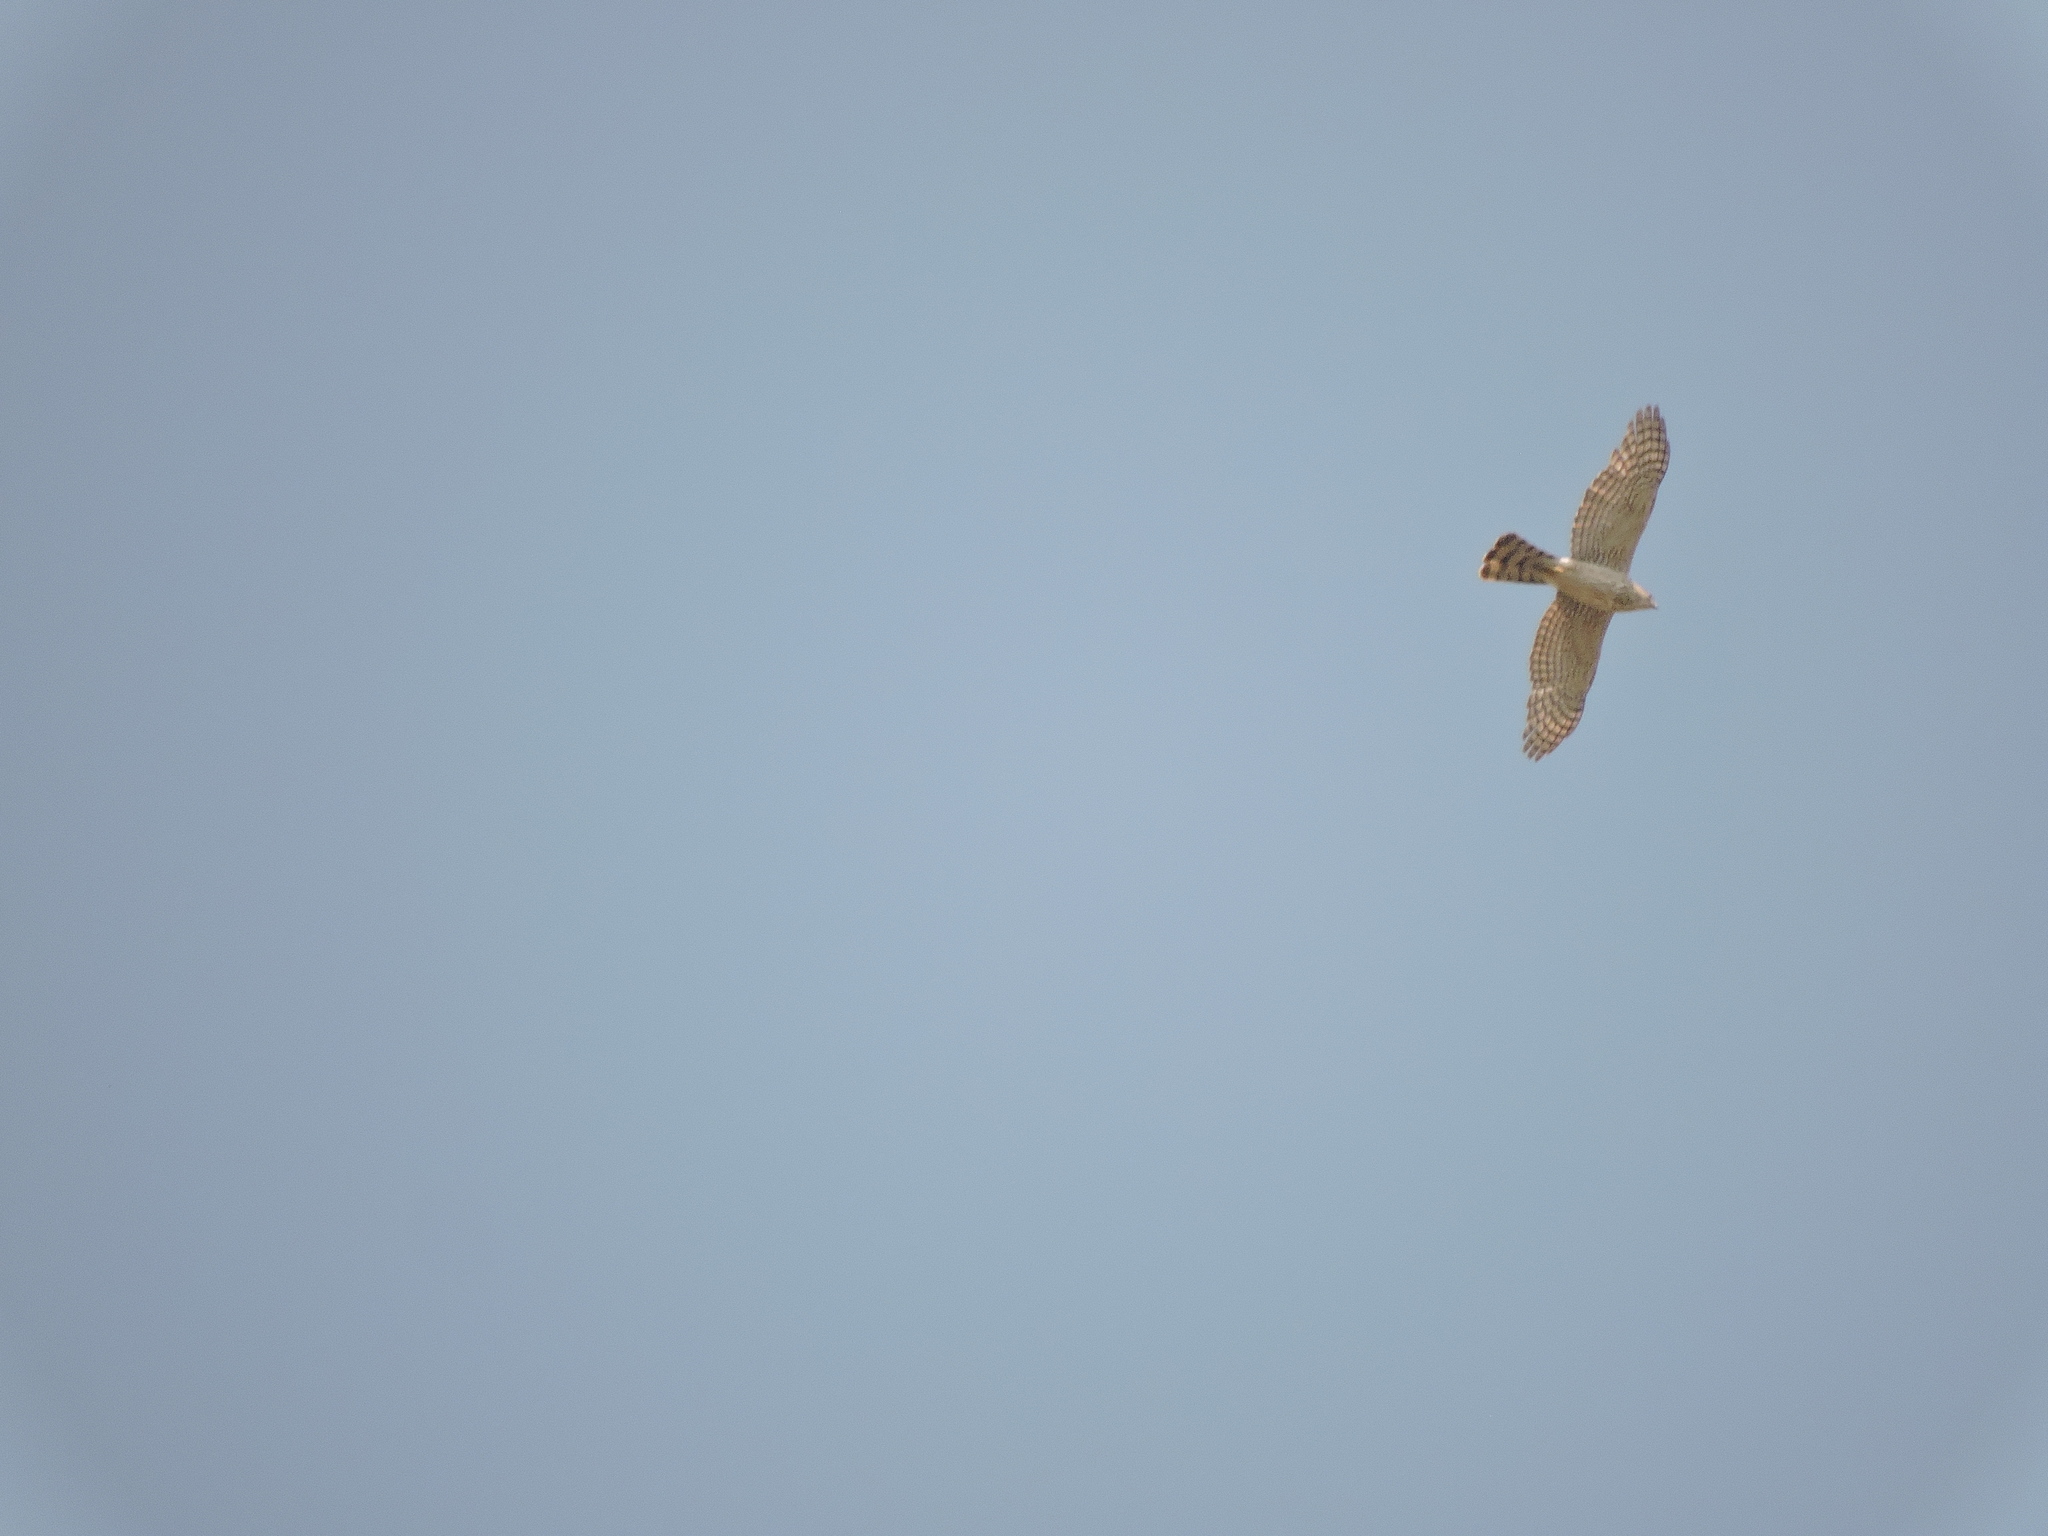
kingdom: Animalia
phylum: Chordata
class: Aves
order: Accipitriformes
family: Accipitridae
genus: Accipiter
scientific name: Accipiter cooperii
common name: Cooper's hawk
